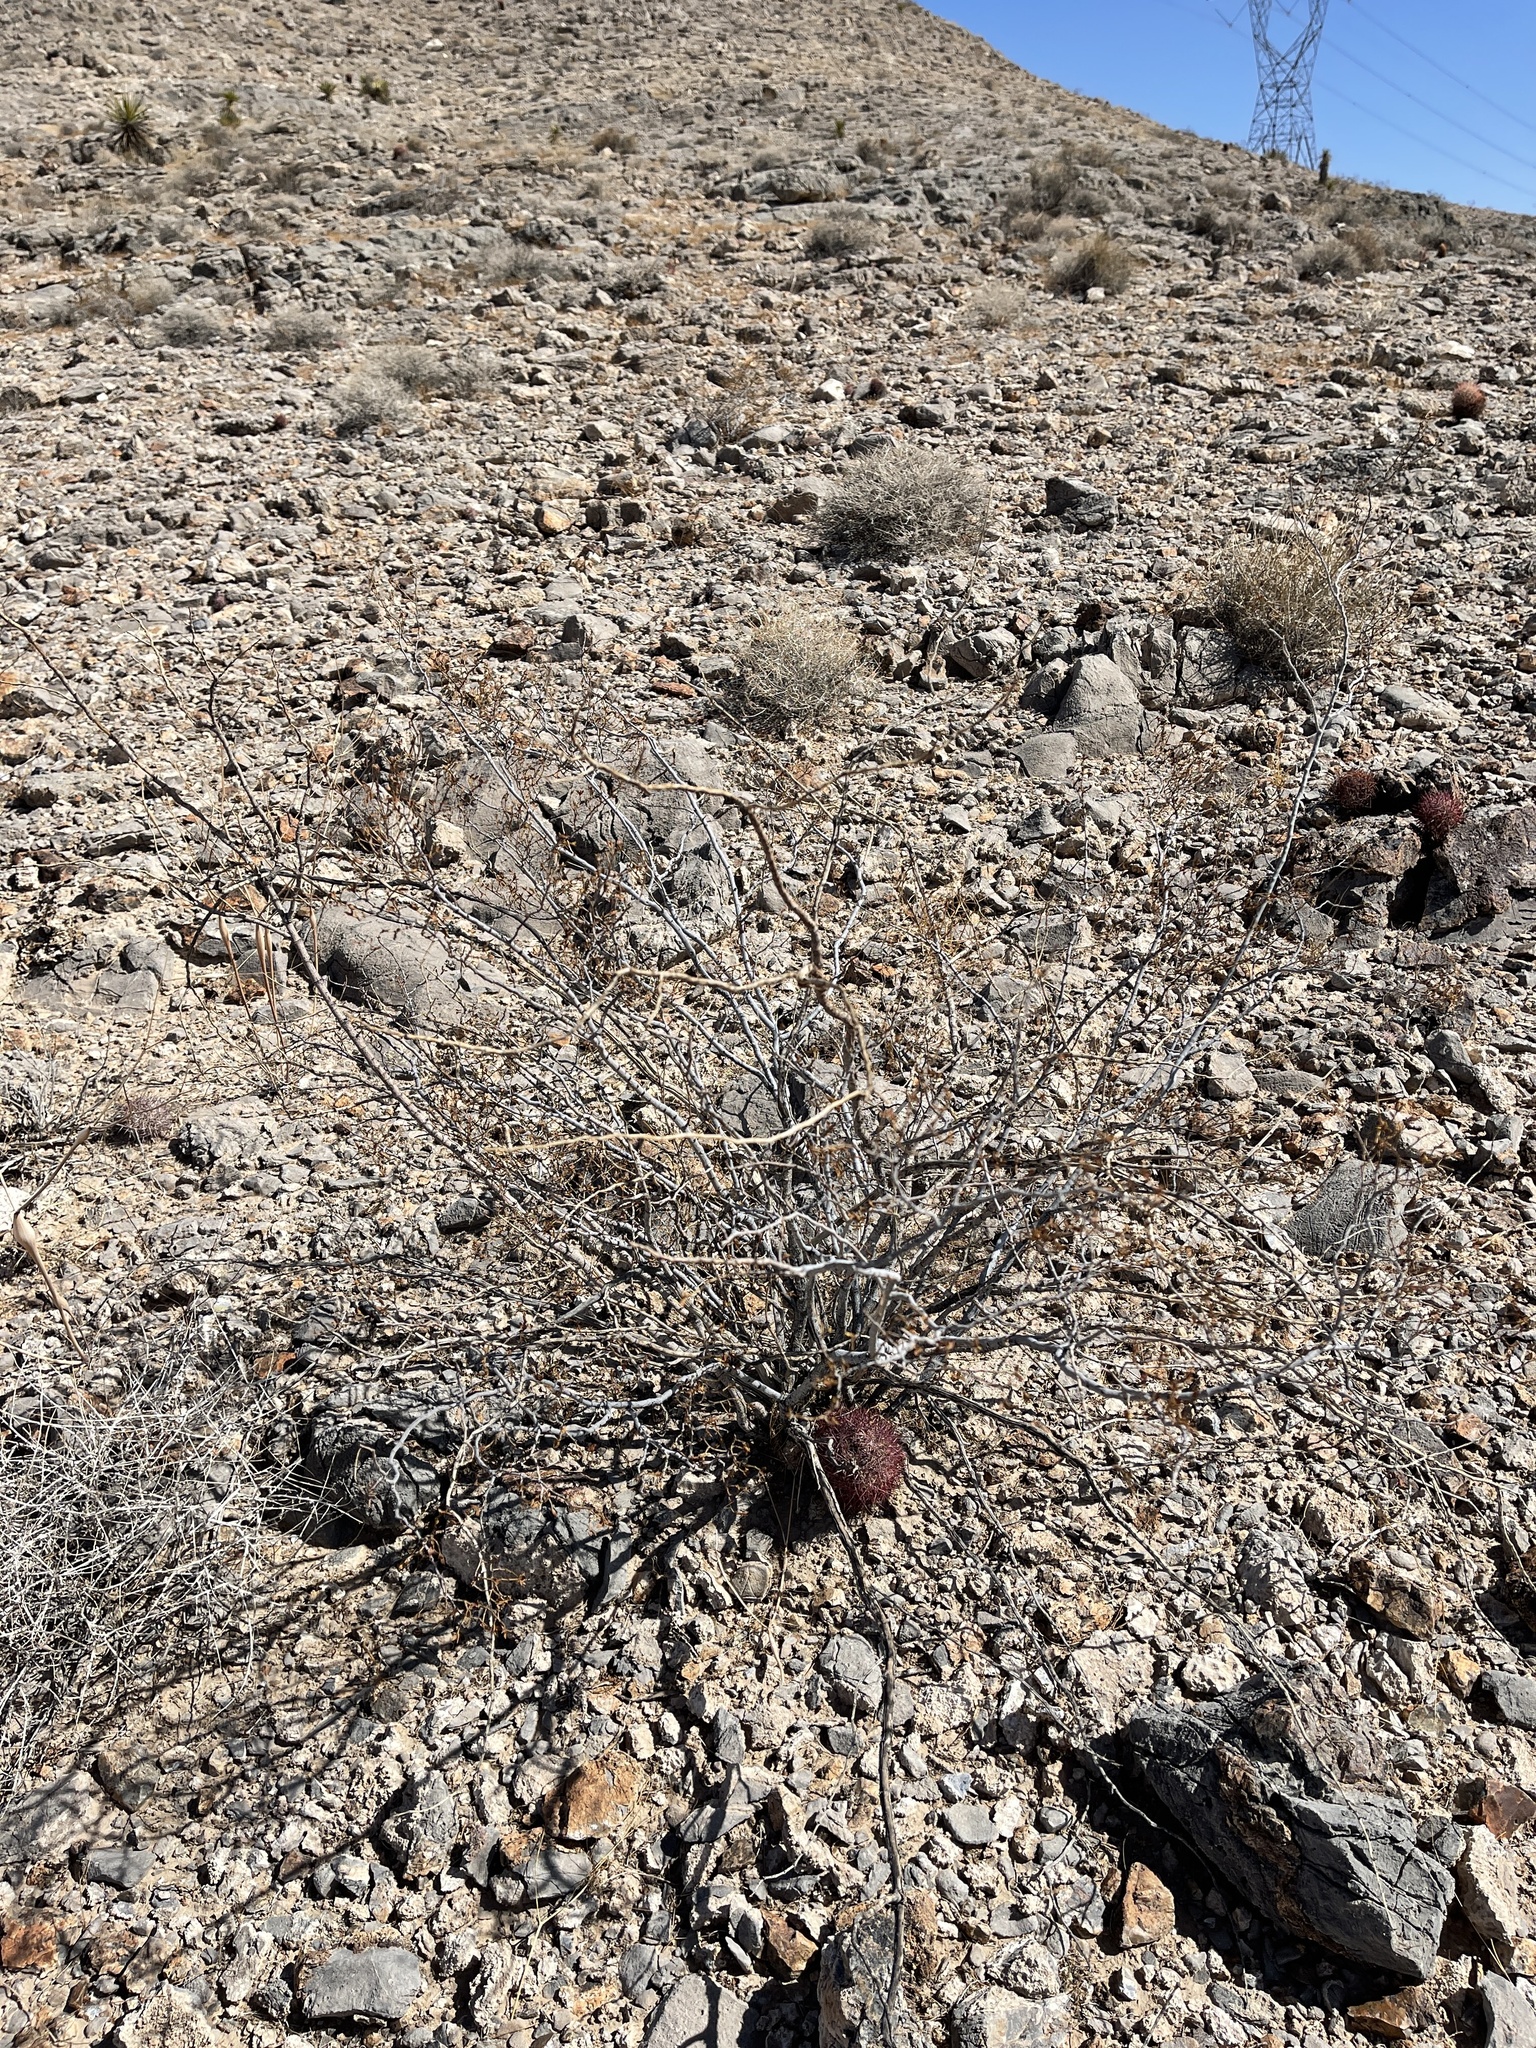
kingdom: Plantae
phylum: Tracheophyta
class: Magnoliopsida
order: Zygophyllales
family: Zygophyllaceae
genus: Larrea
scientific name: Larrea tridentata
